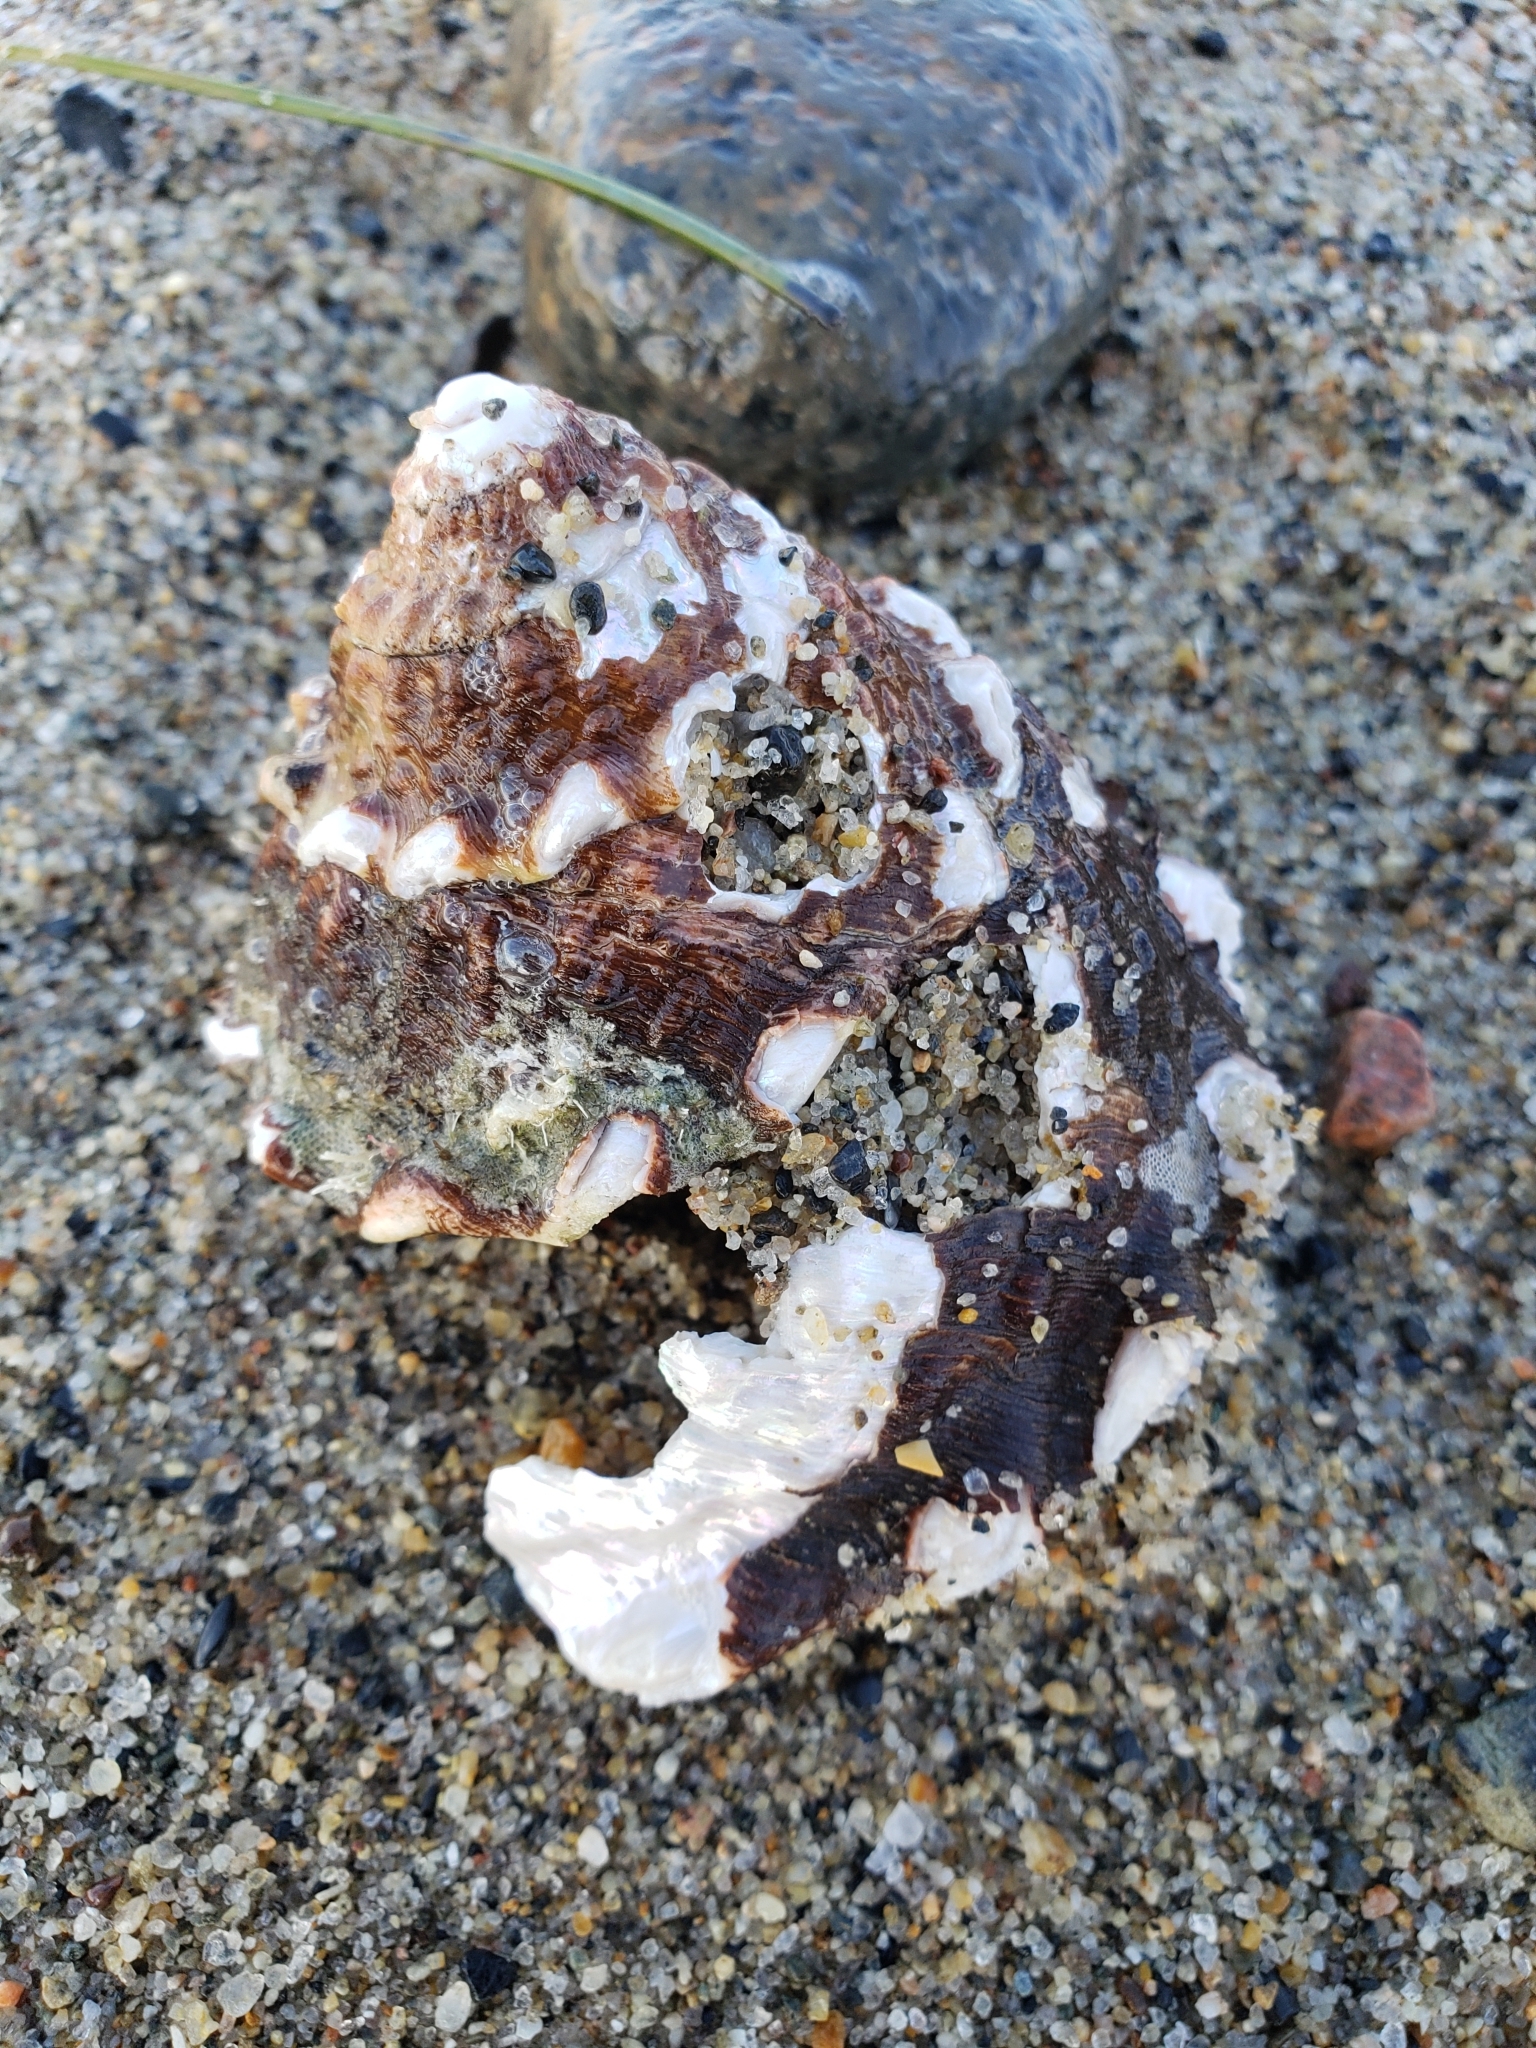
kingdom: Animalia
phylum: Mollusca
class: Gastropoda
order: Trochida
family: Turbinidae
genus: Megastraea
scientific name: Megastraea undosa
